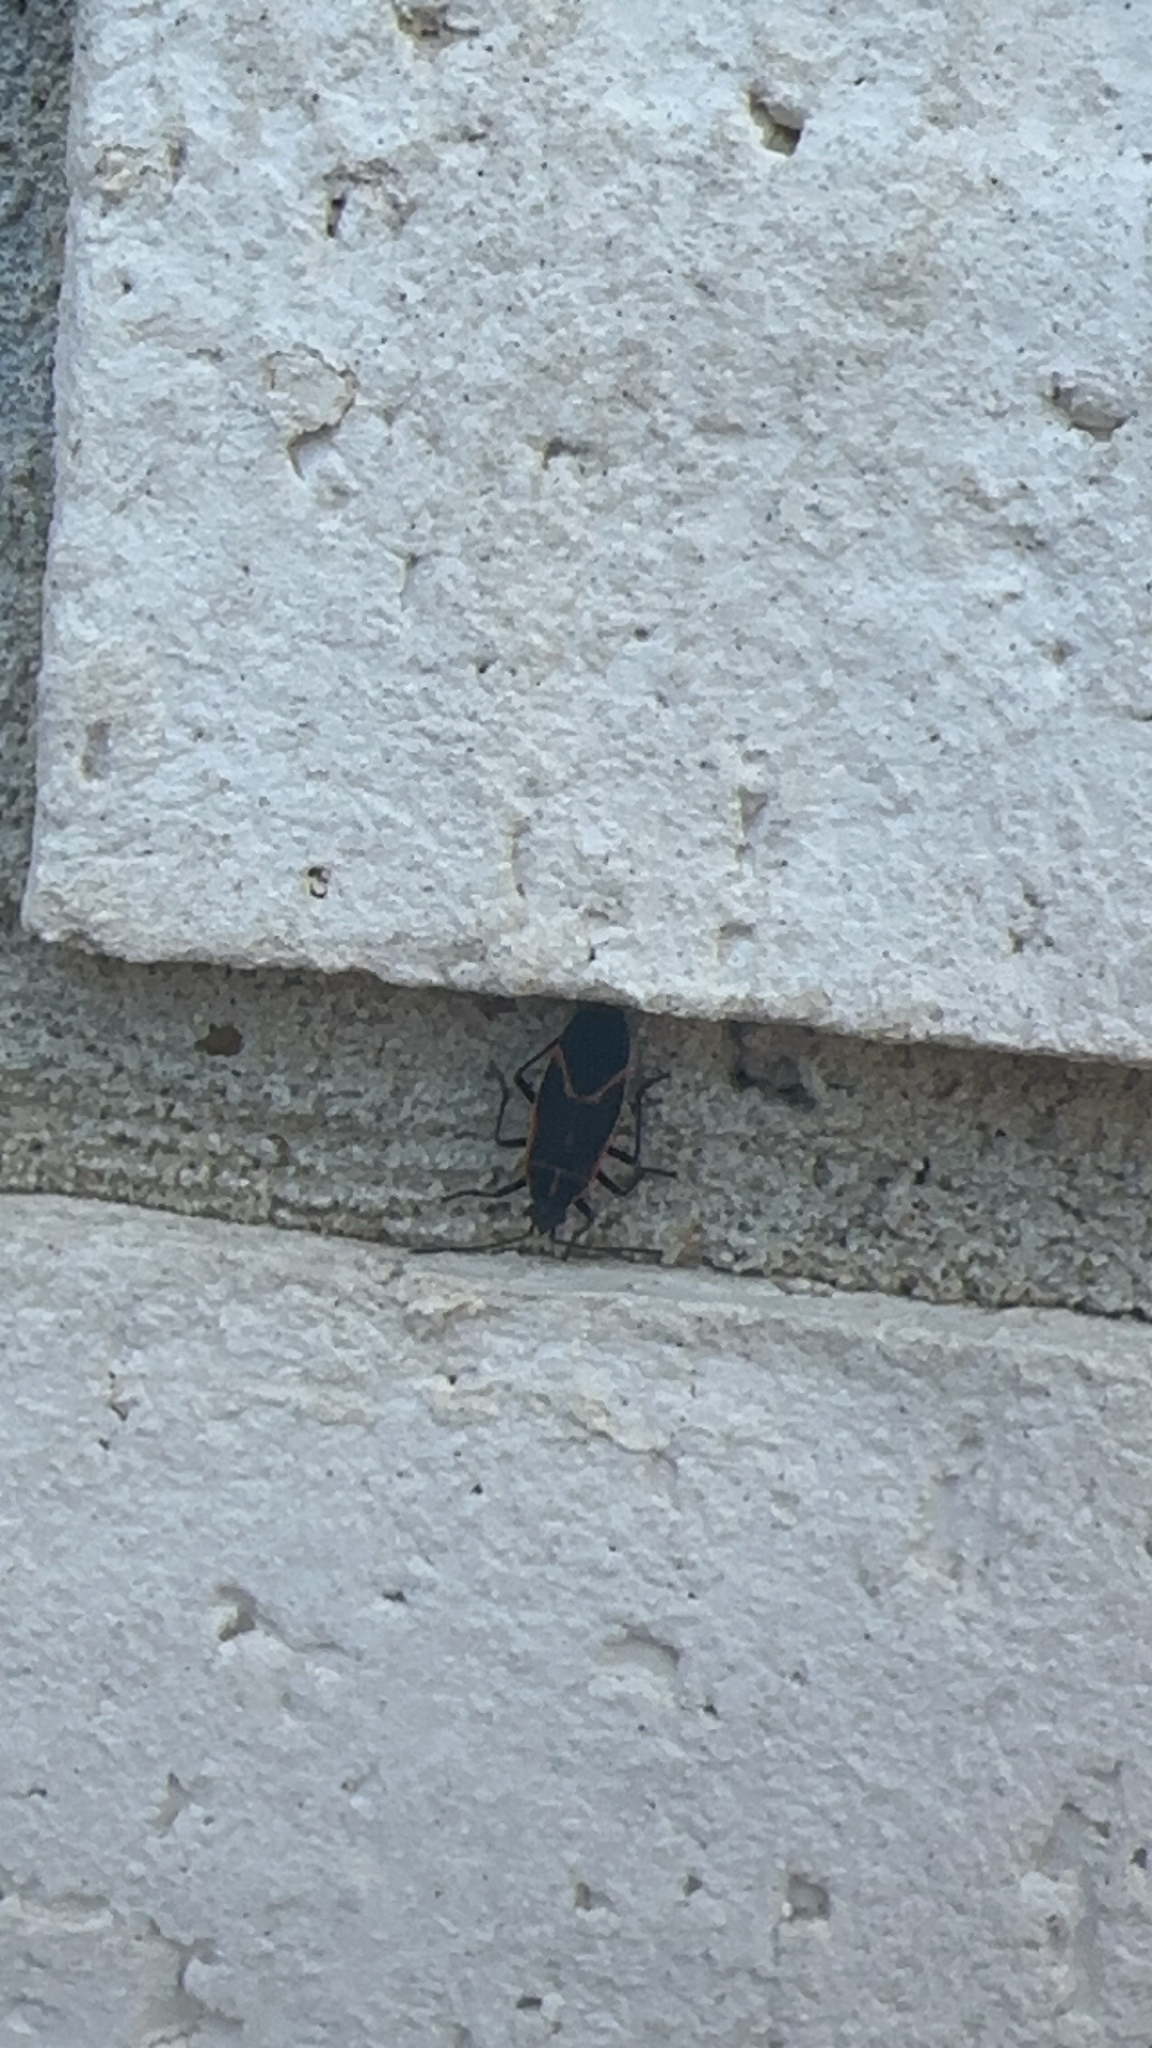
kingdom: Animalia
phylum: Arthropoda
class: Insecta
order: Hemiptera
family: Rhopalidae
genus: Boisea
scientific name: Boisea trivittata
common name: Boxelder bug
